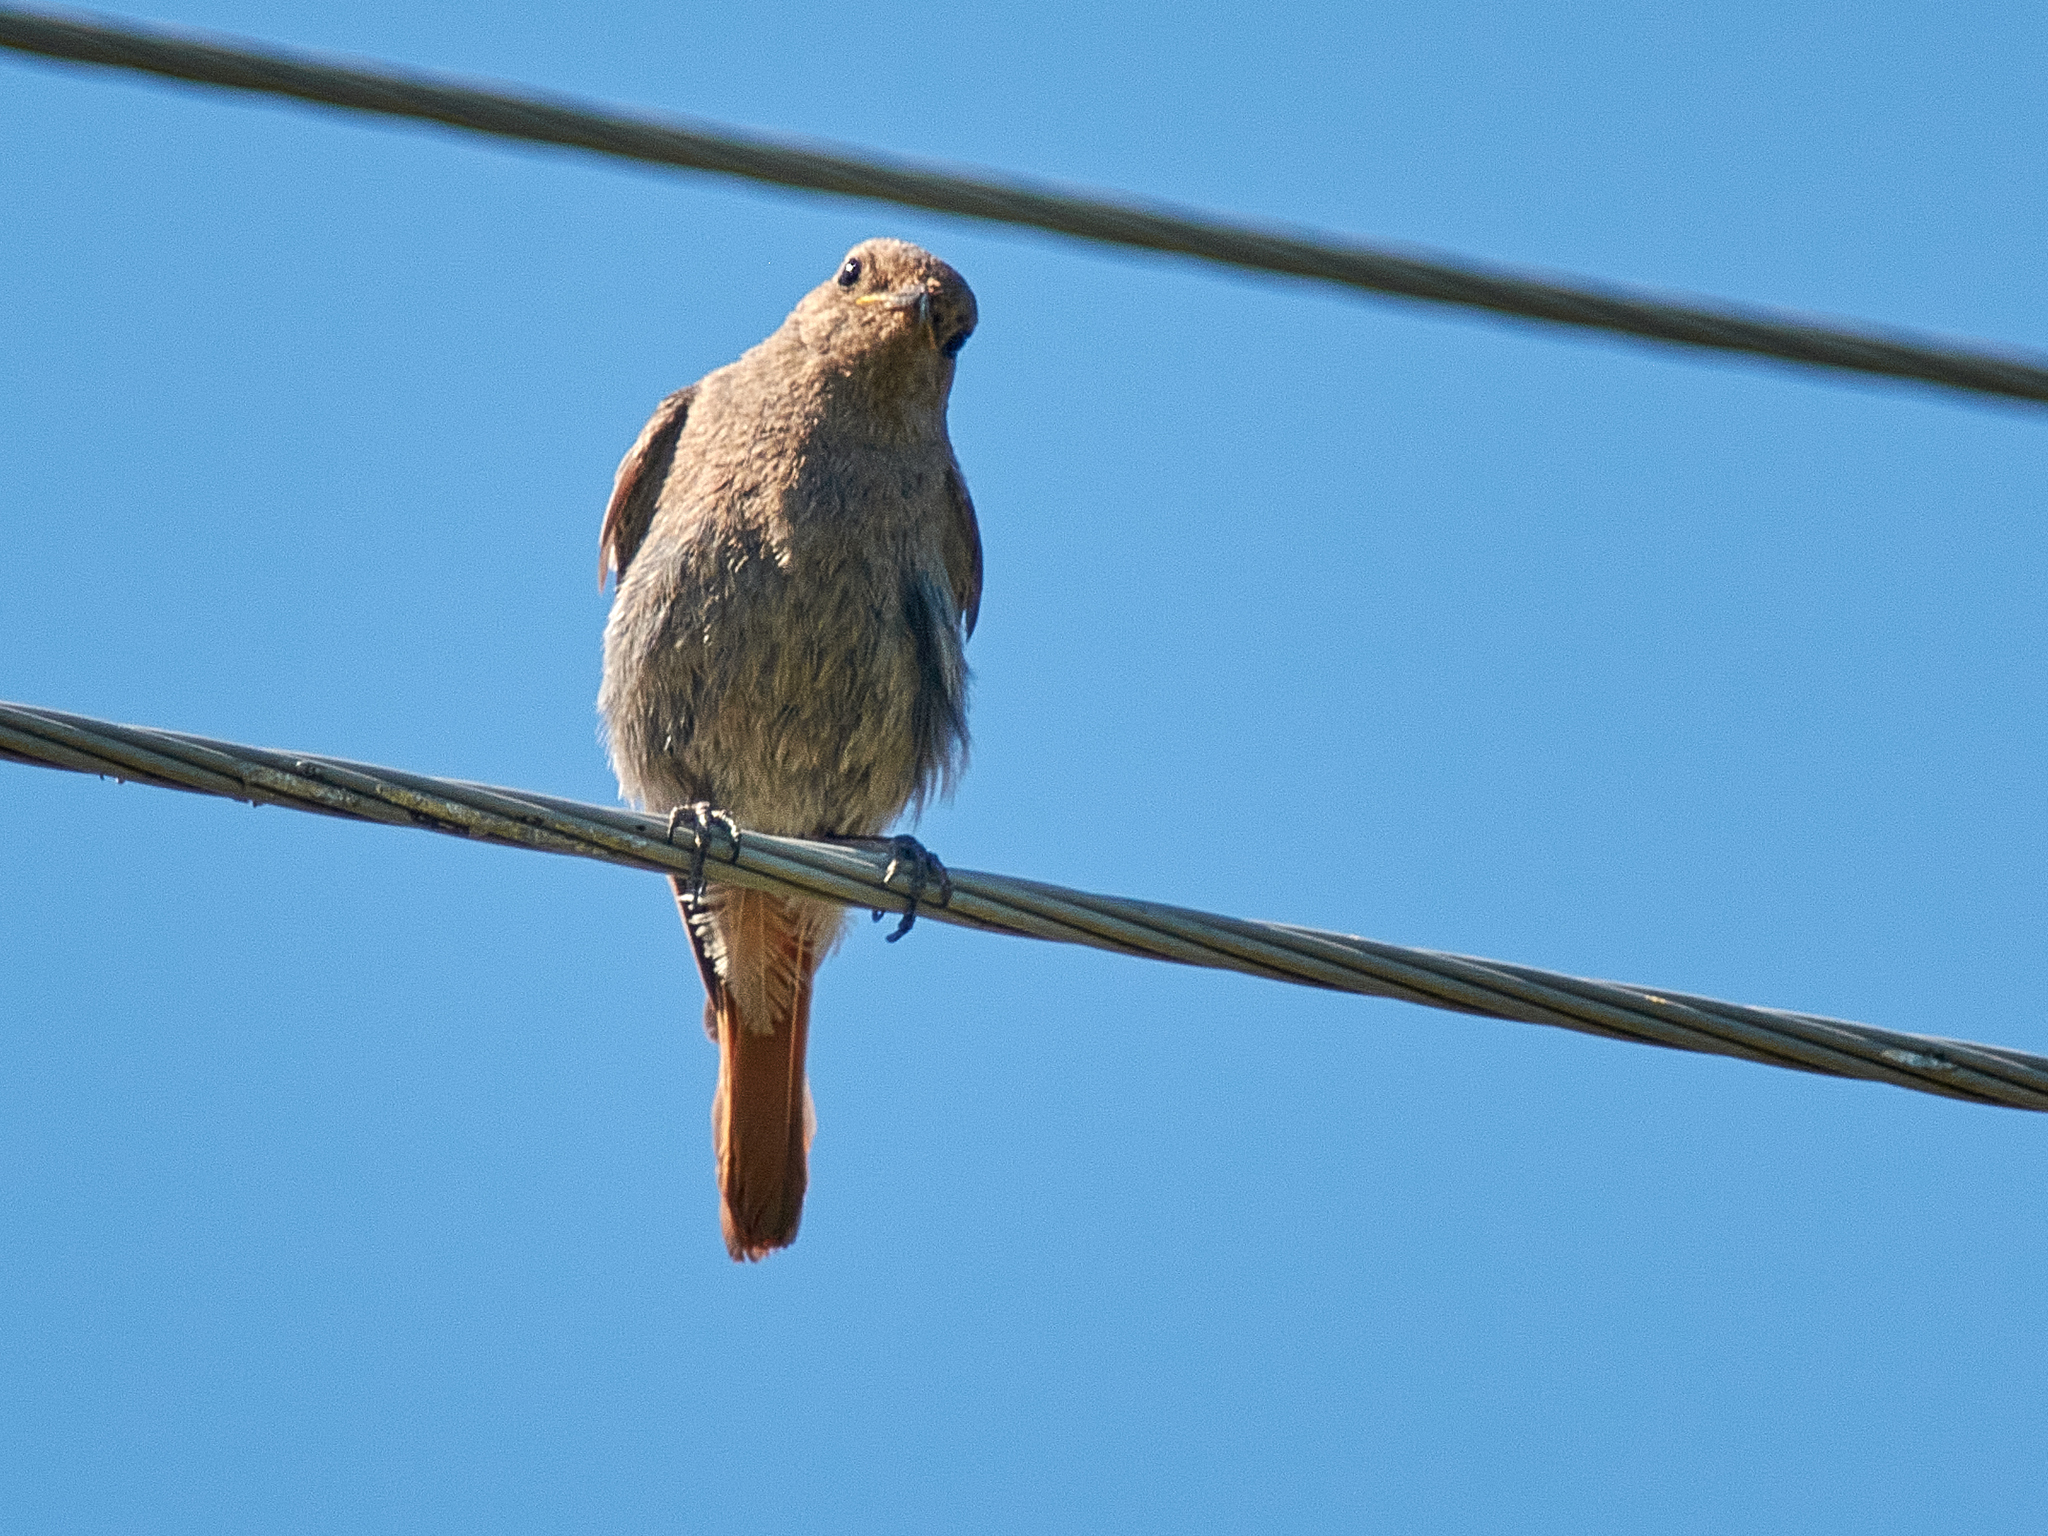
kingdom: Animalia
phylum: Chordata
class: Aves
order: Passeriformes
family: Muscicapidae
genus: Phoenicurus
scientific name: Phoenicurus ochruros
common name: Black redstart
